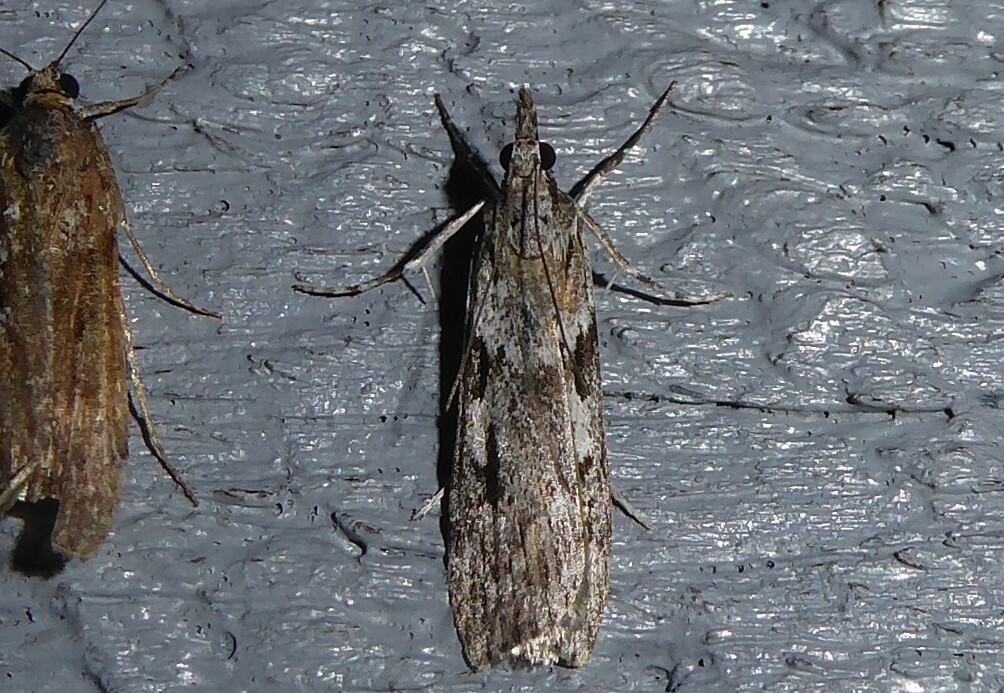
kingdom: Animalia
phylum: Arthropoda
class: Insecta
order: Lepidoptera
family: Crambidae
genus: Scoparia
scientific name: Scoparia halopis
